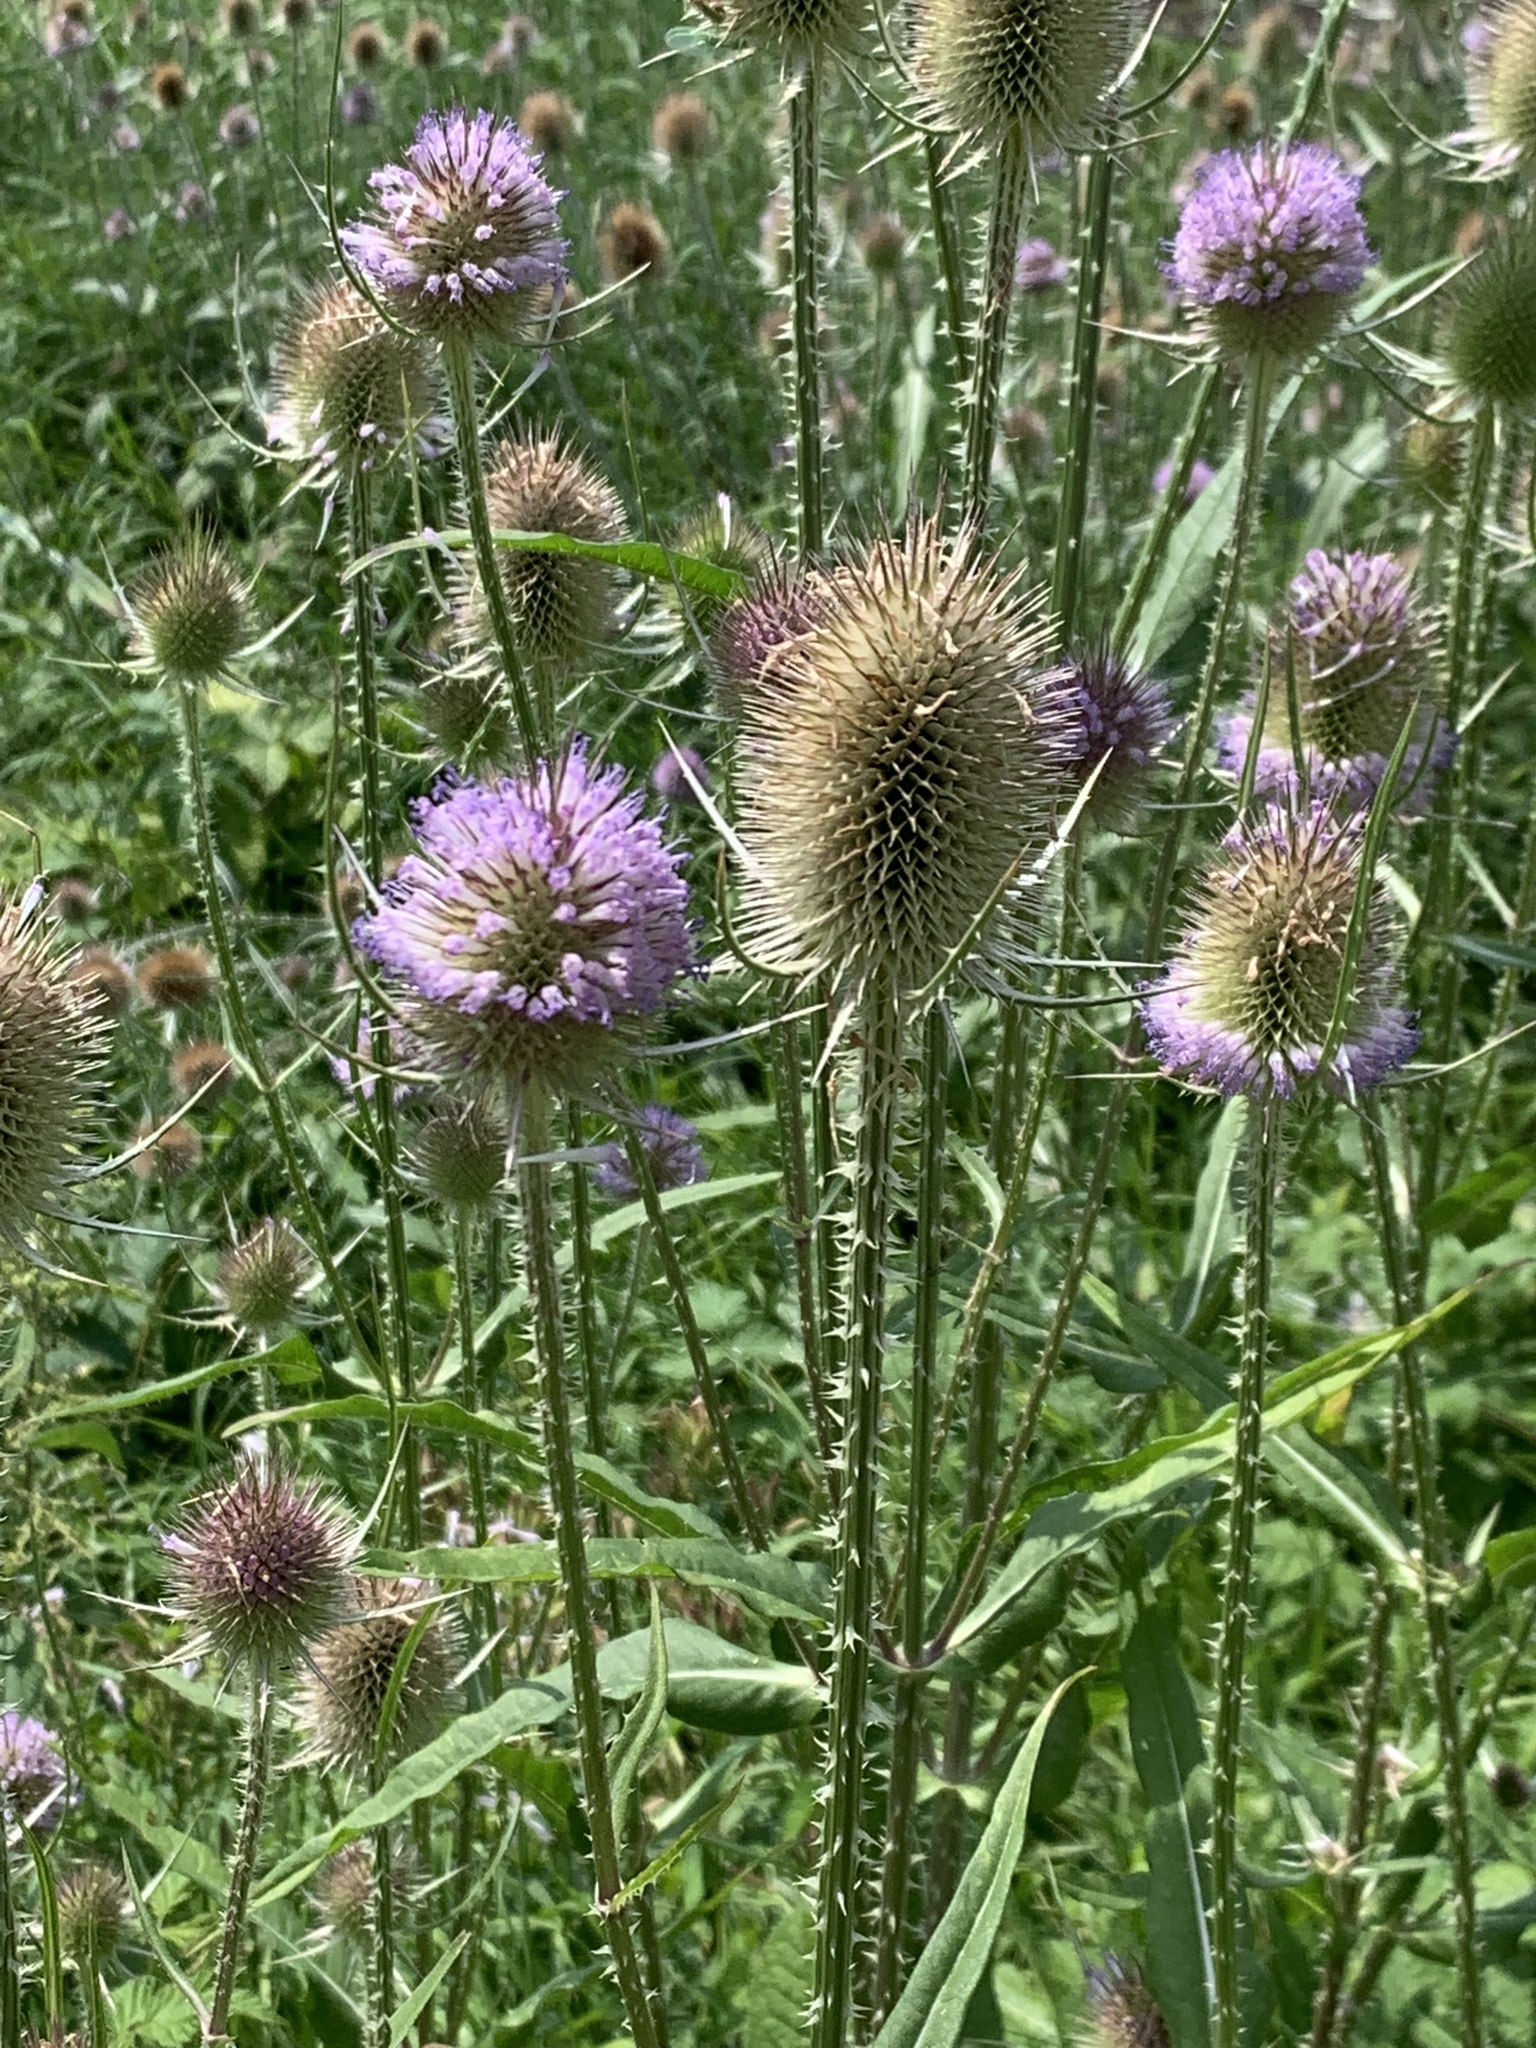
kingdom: Plantae
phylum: Tracheophyta
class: Magnoliopsida
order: Dipsacales
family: Caprifoliaceae
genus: Dipsacus
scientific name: Dipsacus fullonum
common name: Teasel
